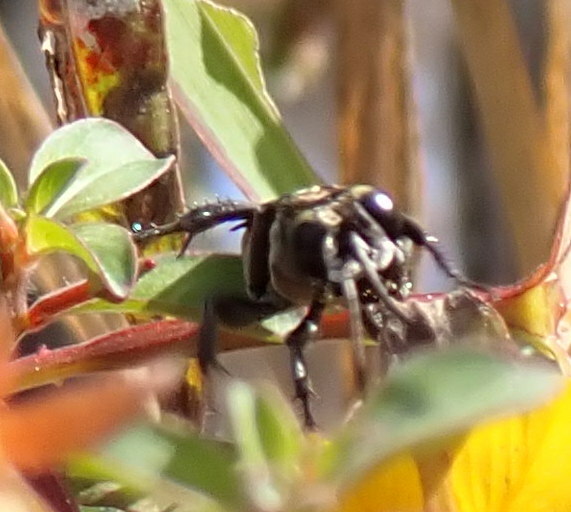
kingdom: Animalia
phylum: Arthropoda
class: Insecta
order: Hymenoptera
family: Crabronidae
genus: Larra
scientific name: Larra bicolor
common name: Wasp
